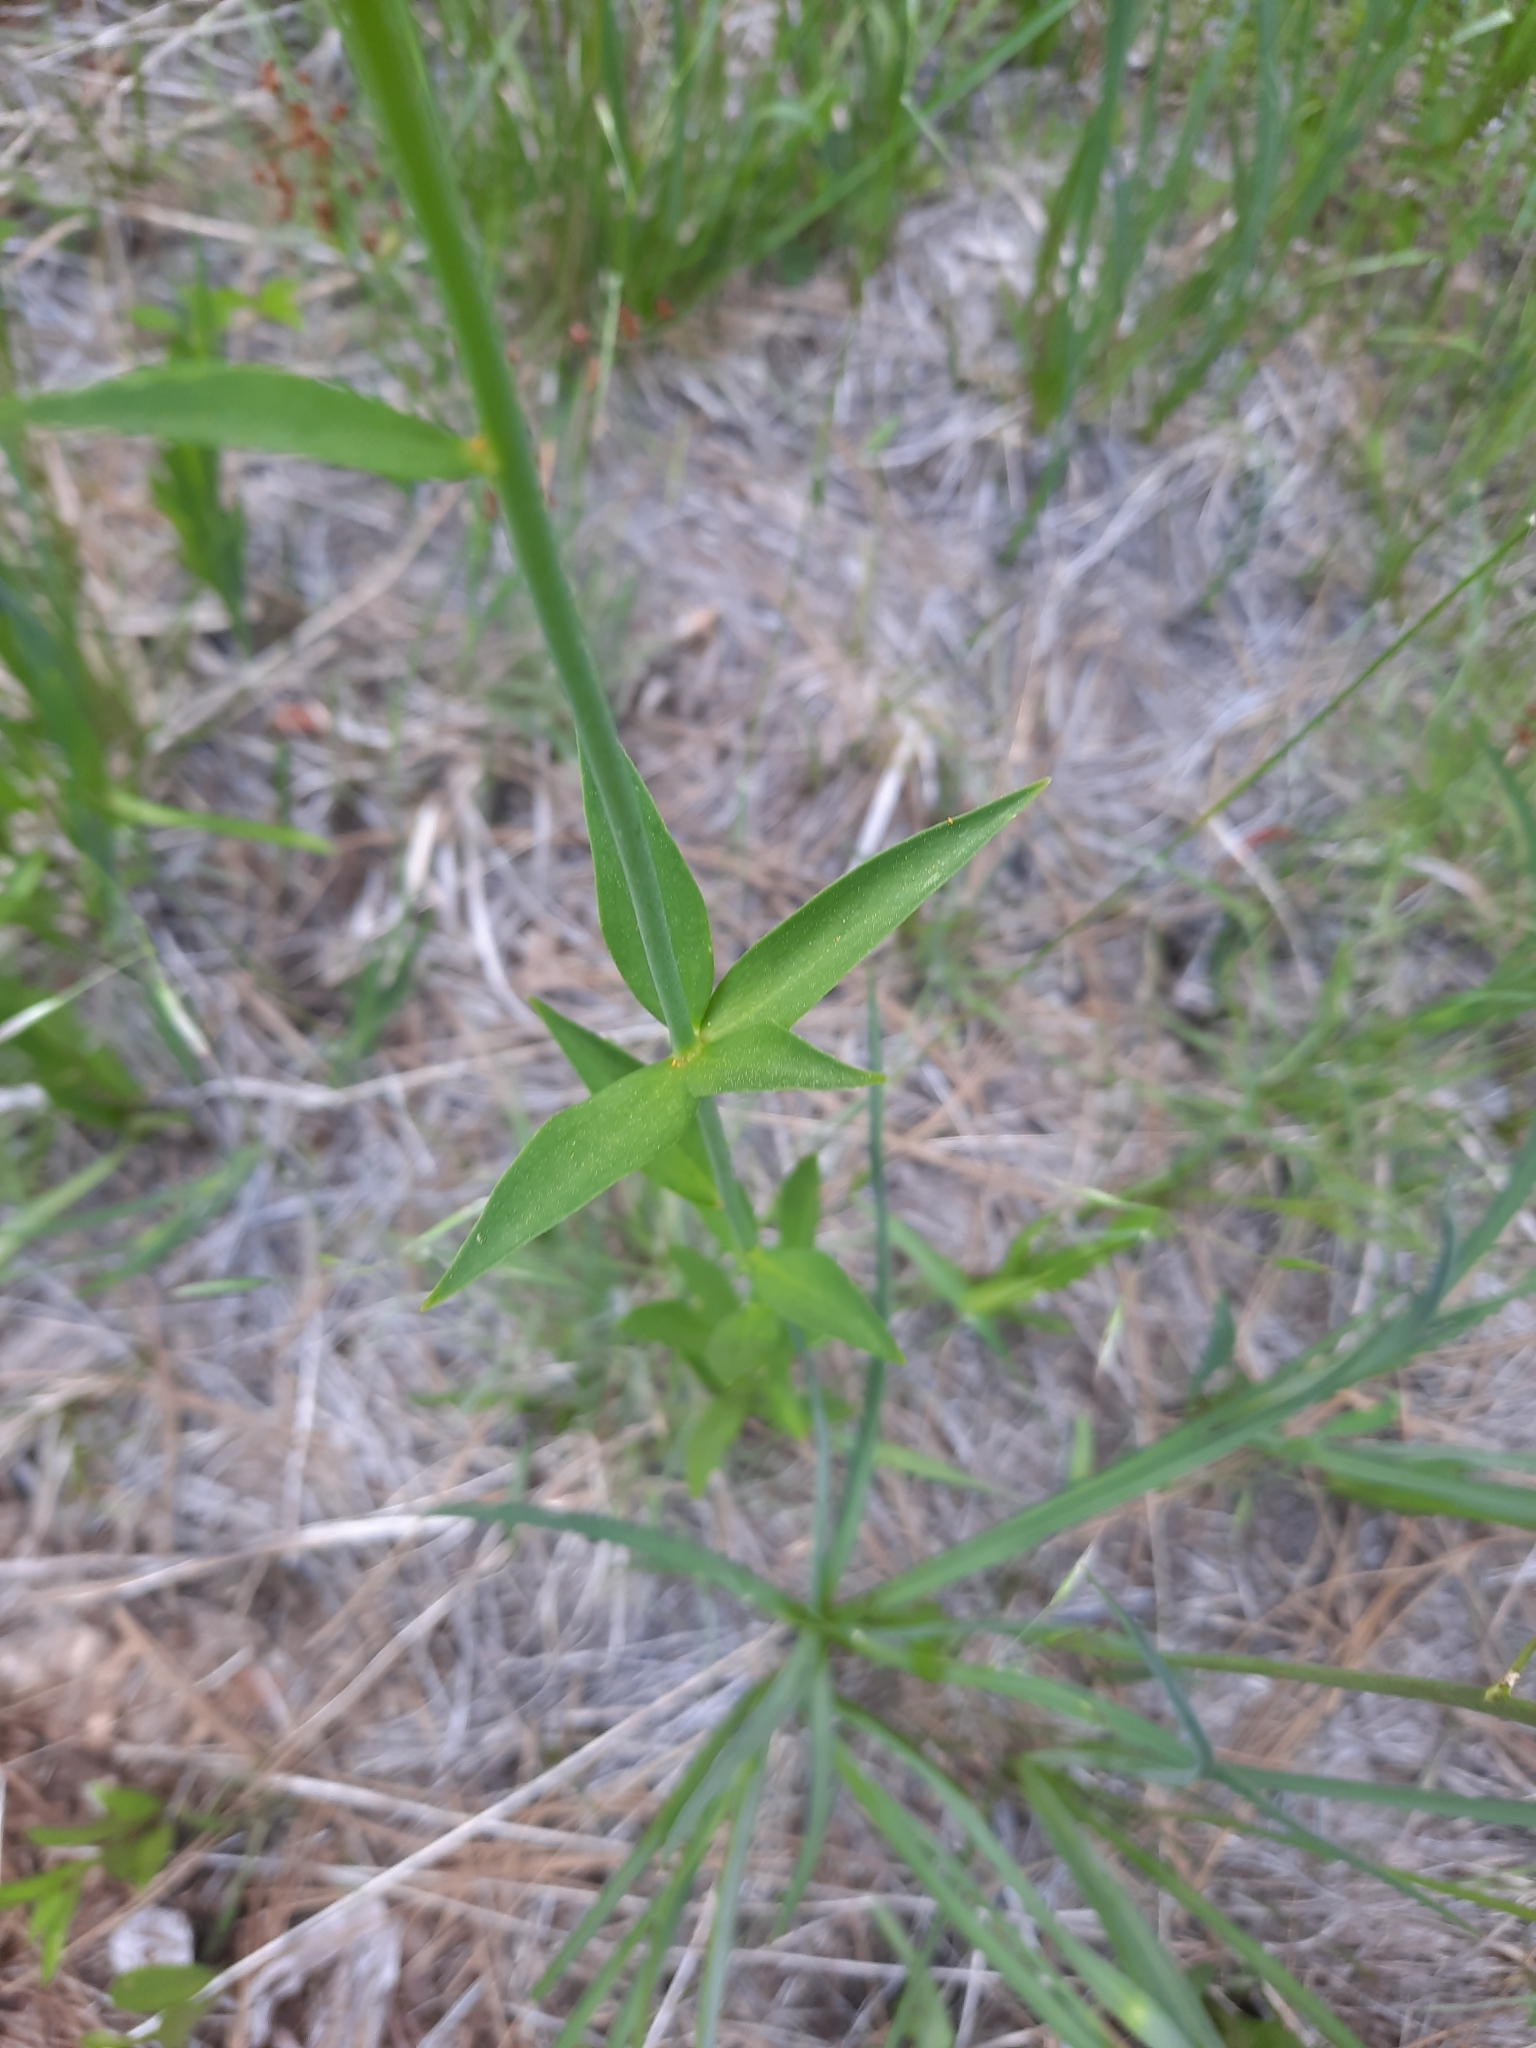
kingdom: Plantae
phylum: Tracheophyta
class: Liliopsida
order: Liliales
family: Liliaceae
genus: Lilium
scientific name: Lilium pardalinum
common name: Panther lily
